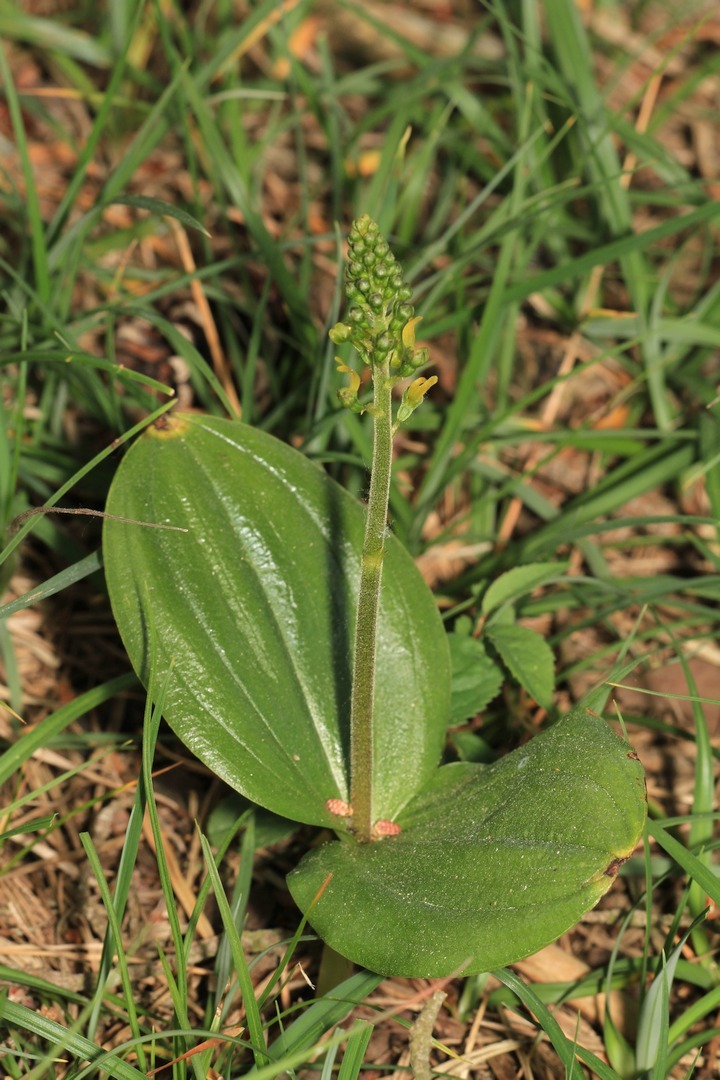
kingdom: Plantae
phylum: Tracheophyta
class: Liliopsida
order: Asparagales
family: Orchidaceae
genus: Neottia
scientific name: Neottia ovata
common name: Common twayblade
